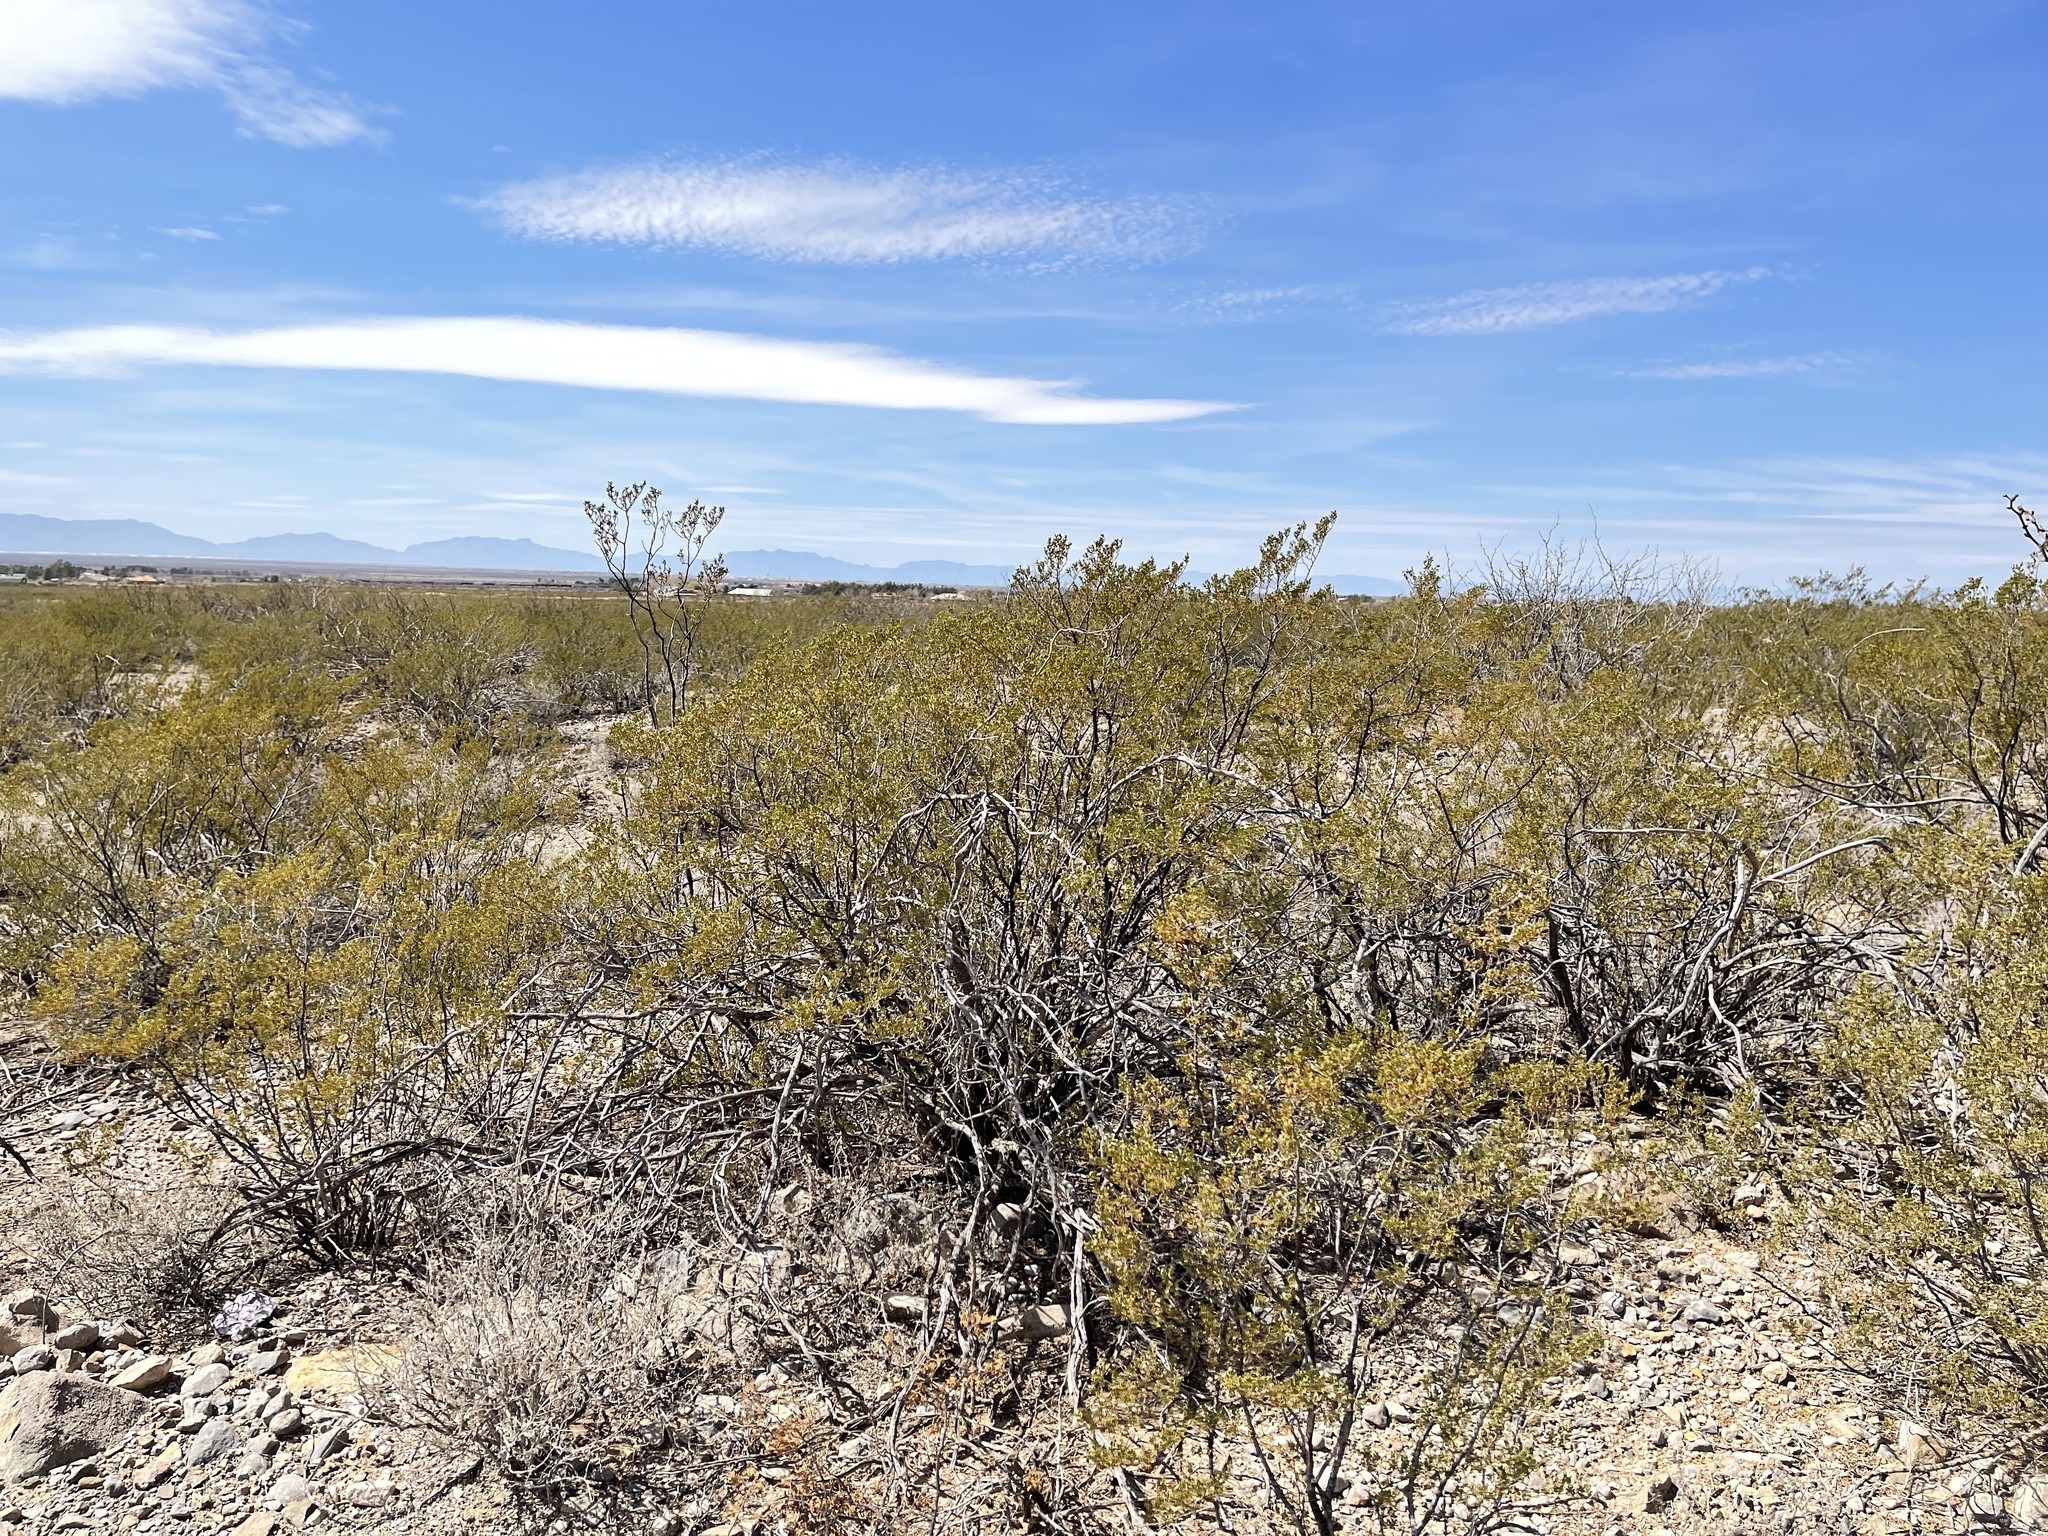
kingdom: Plantae
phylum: Tracheophyta
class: Magnoliopsida
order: Zygophyllales
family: Zygophyllaceae
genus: Larrea
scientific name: Larrea tridentata
